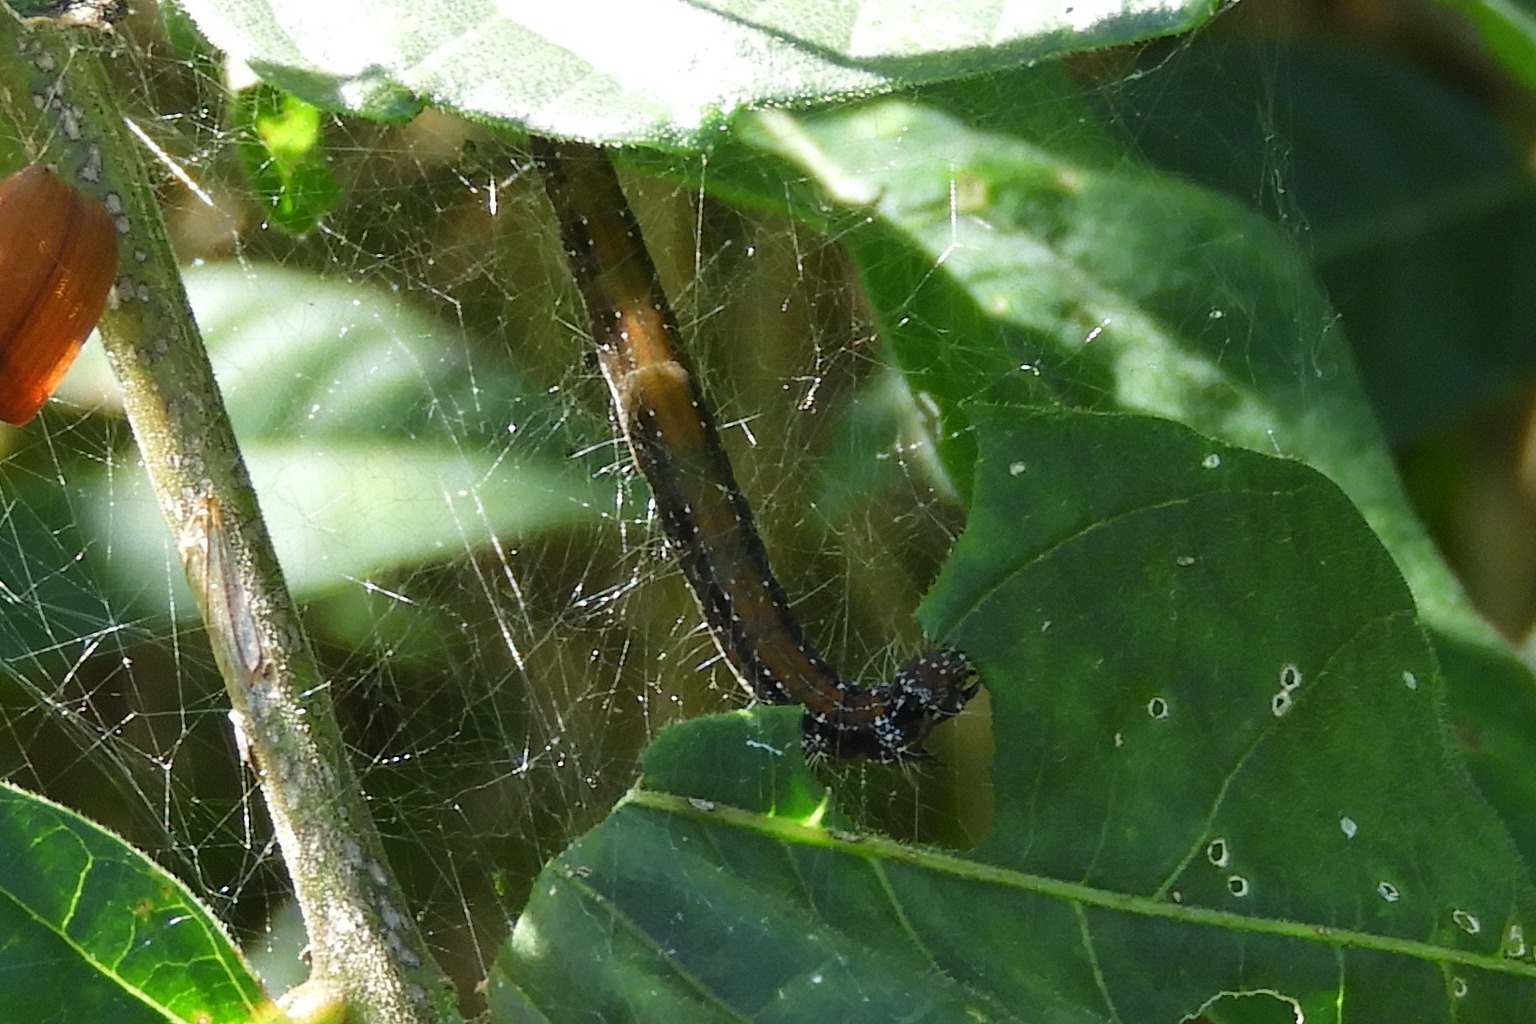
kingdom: Animalia
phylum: Arthropoda
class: Insecta
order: Lepidoptera
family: Attevidae
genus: Atteva
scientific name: Atteva punctella
